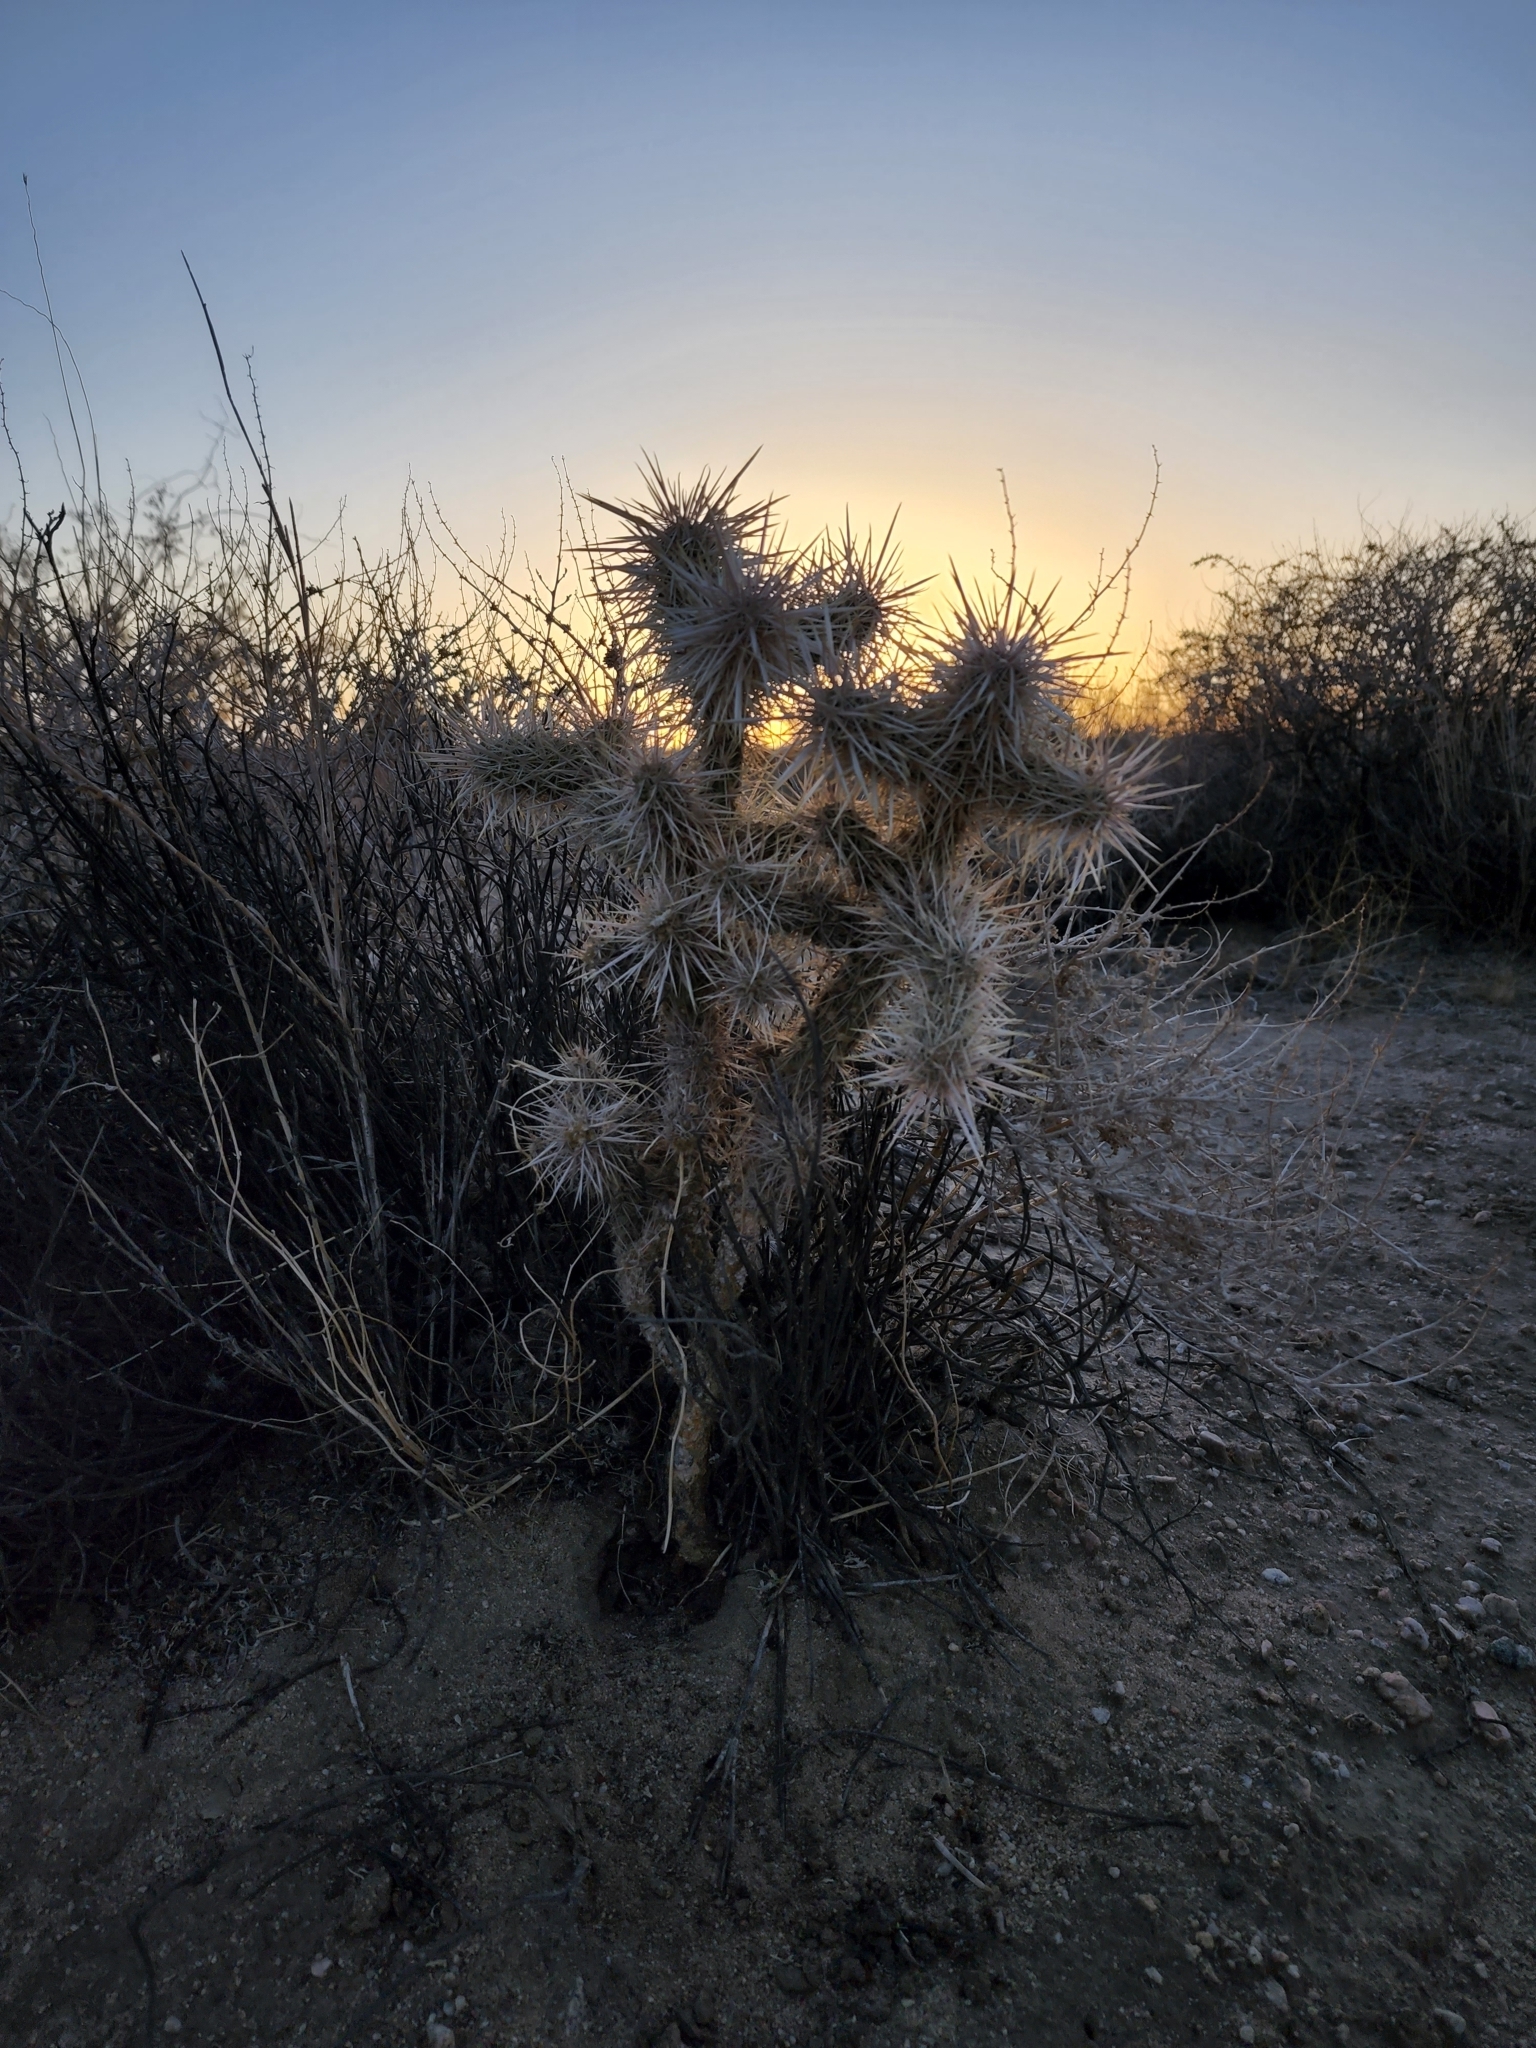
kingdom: Plantae
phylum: Tracheophyta
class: Magnoliopsida
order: Caryophyllales
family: Cactaceae
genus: Cylindropuntia
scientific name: Cylindropuntia echinocarpa
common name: Ground cholla
